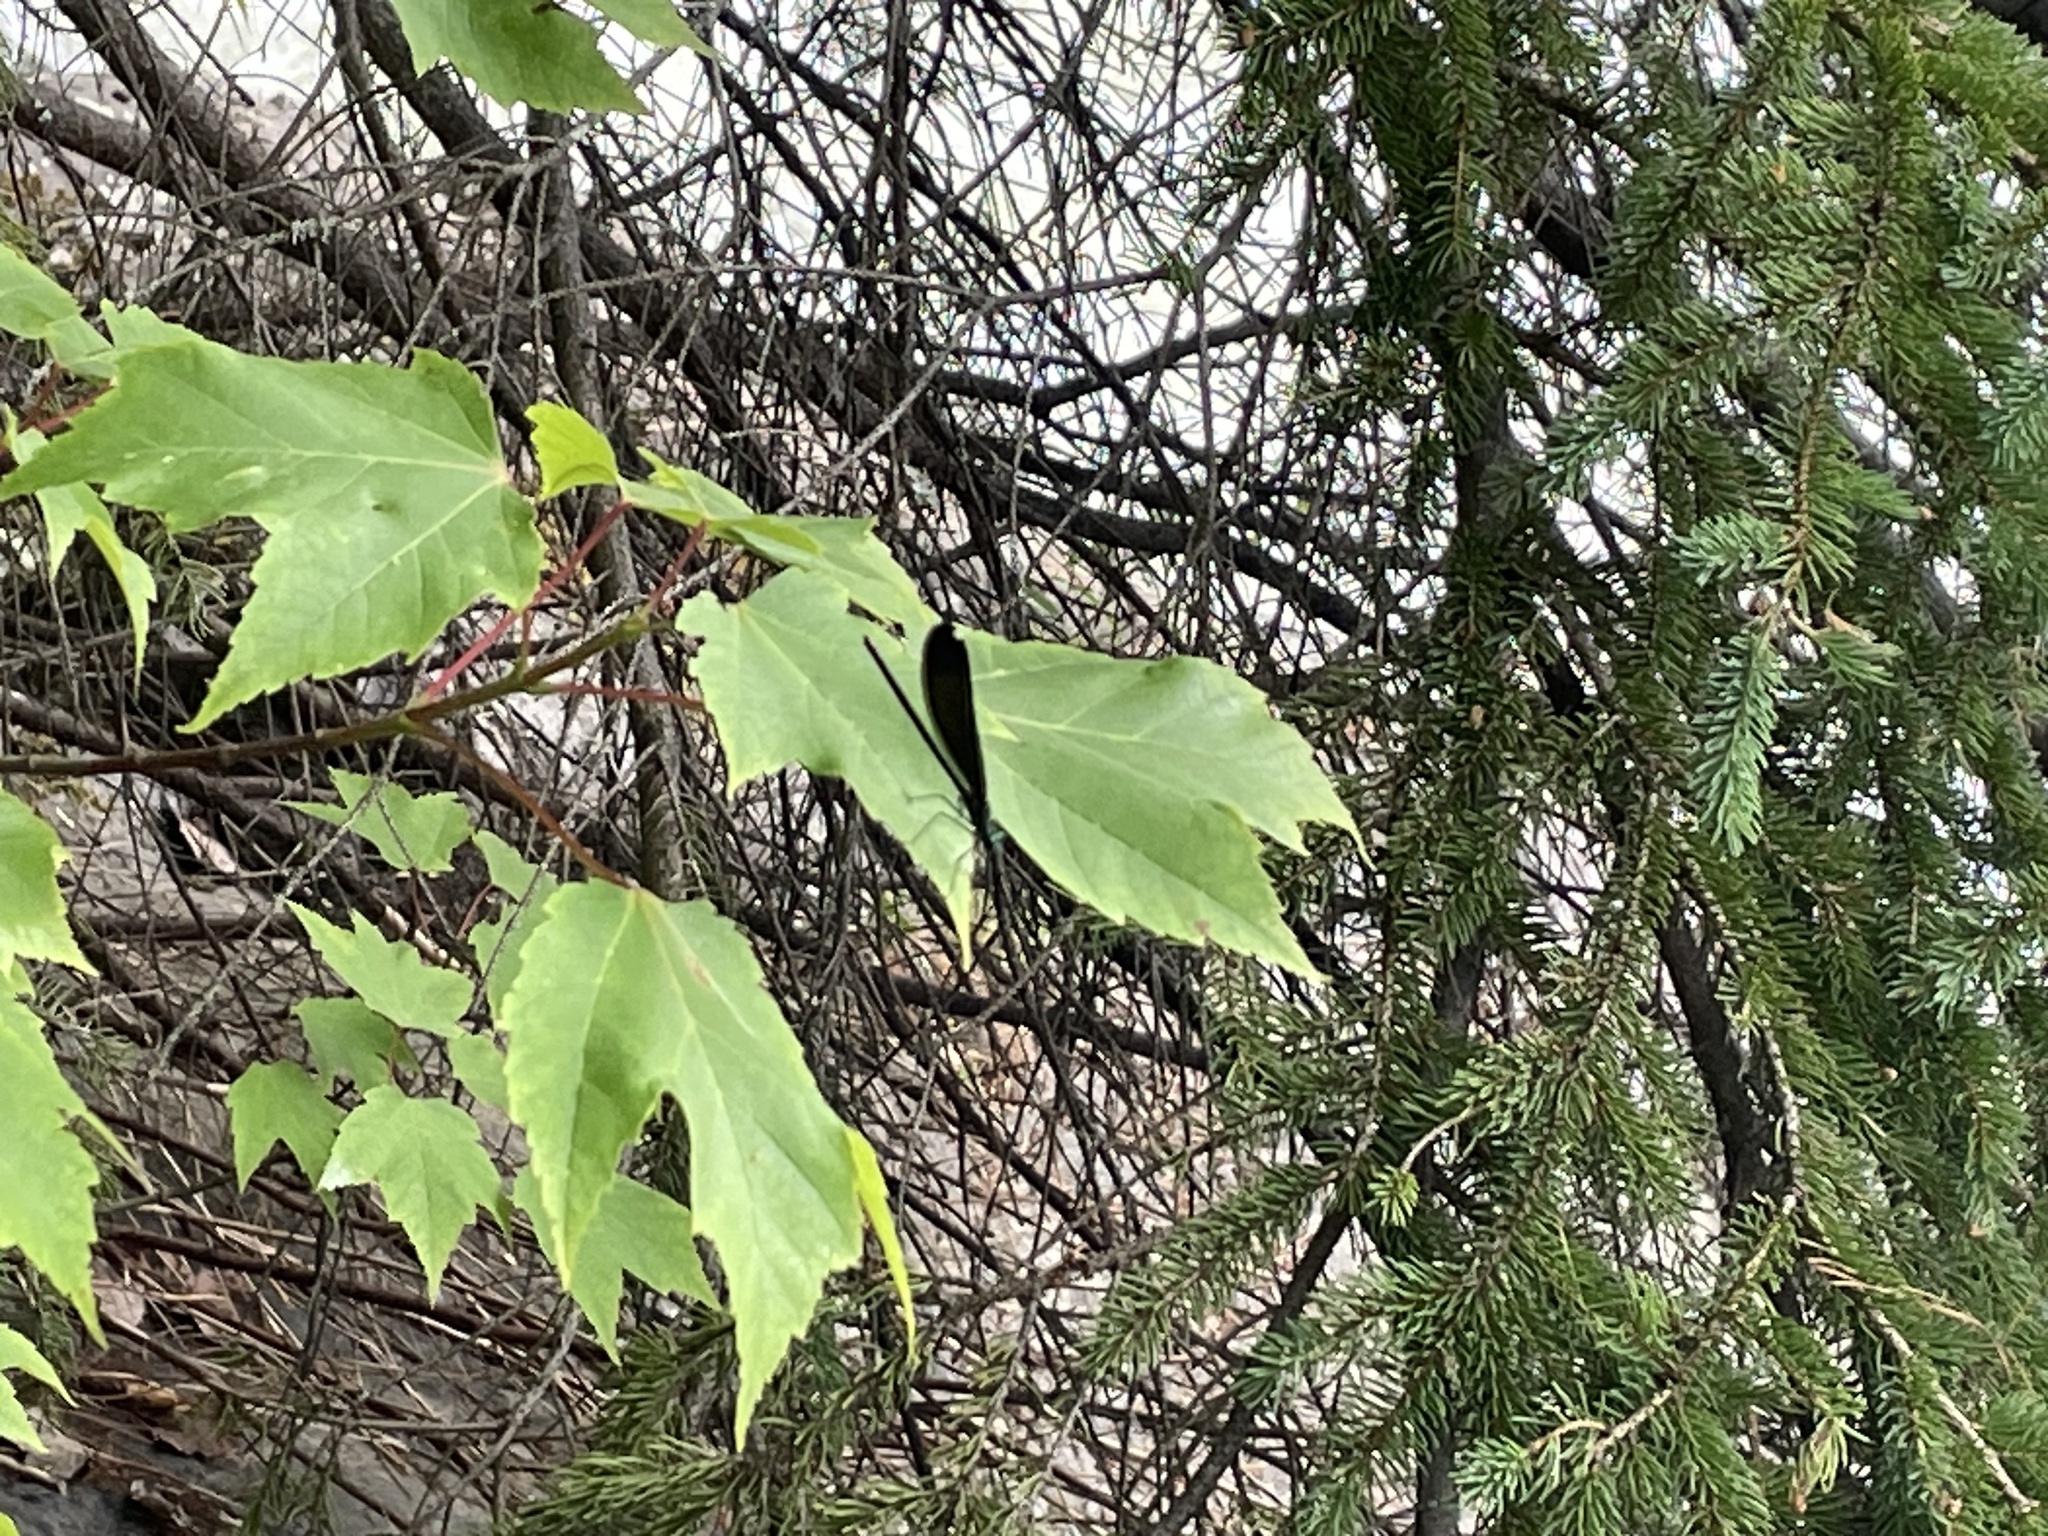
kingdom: Animalia
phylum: Arthropoda
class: Insecta
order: Odonata
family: Calopterygidae
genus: Calopteryx
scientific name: Calopteryx maculata
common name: Ebony jewelwing
